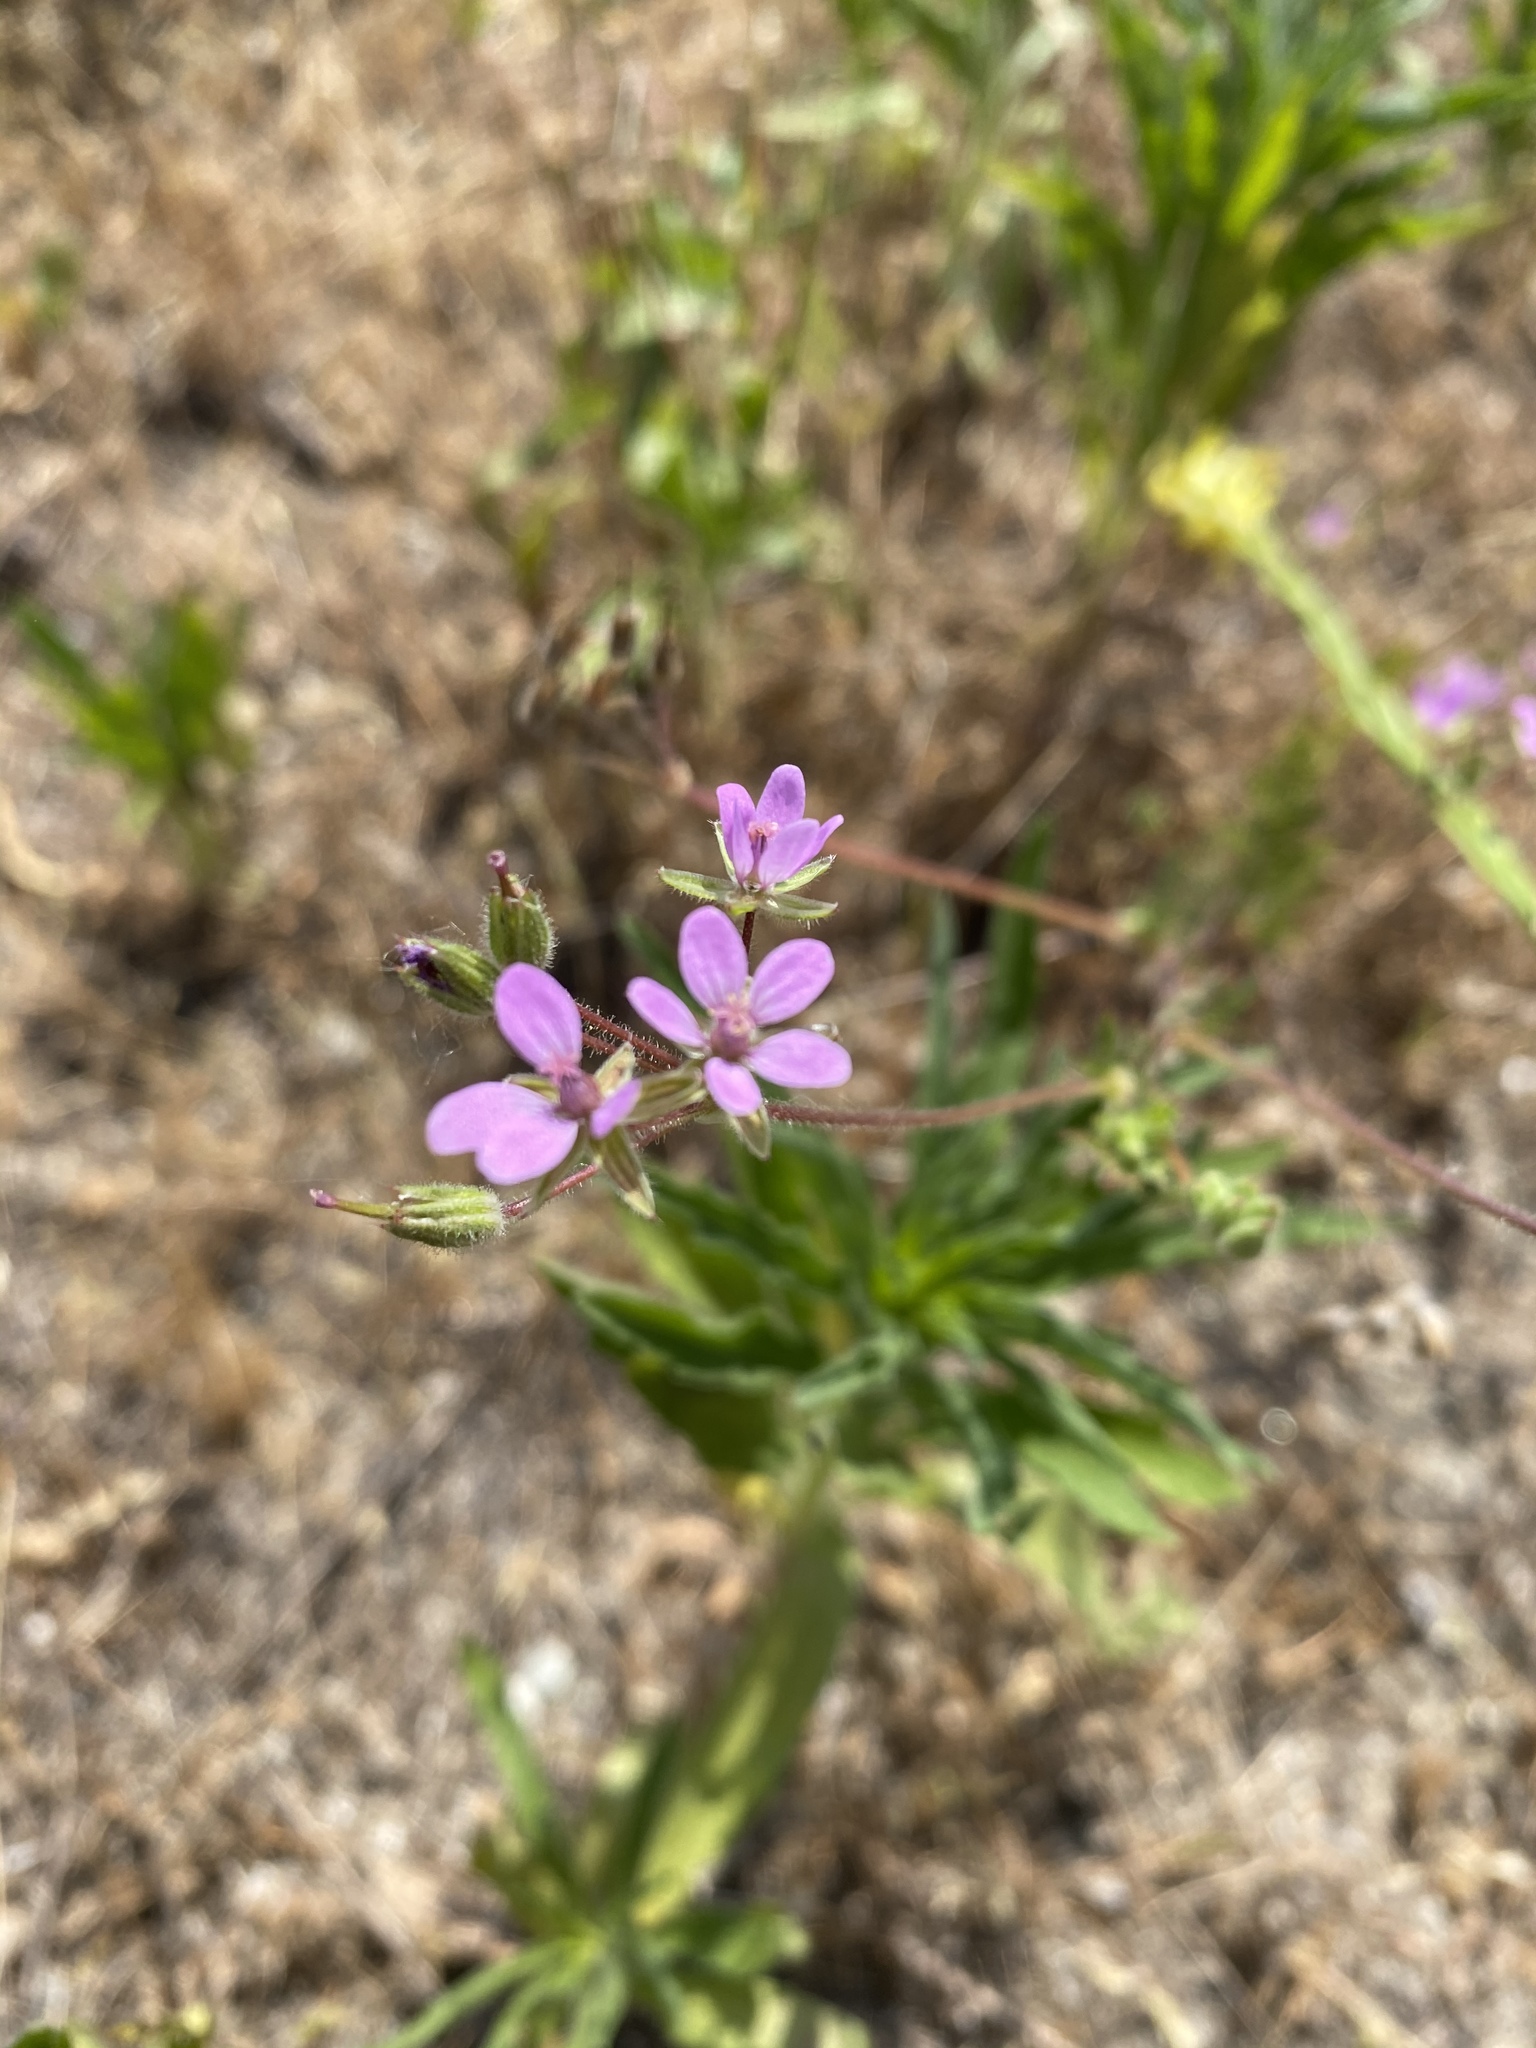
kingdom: Plantae
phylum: Tracheophyta
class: Magnoliopsida
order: Geraniales
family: Geraniaceae
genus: Erodium
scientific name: Erodium cicutarium
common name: Common stork's-bill
